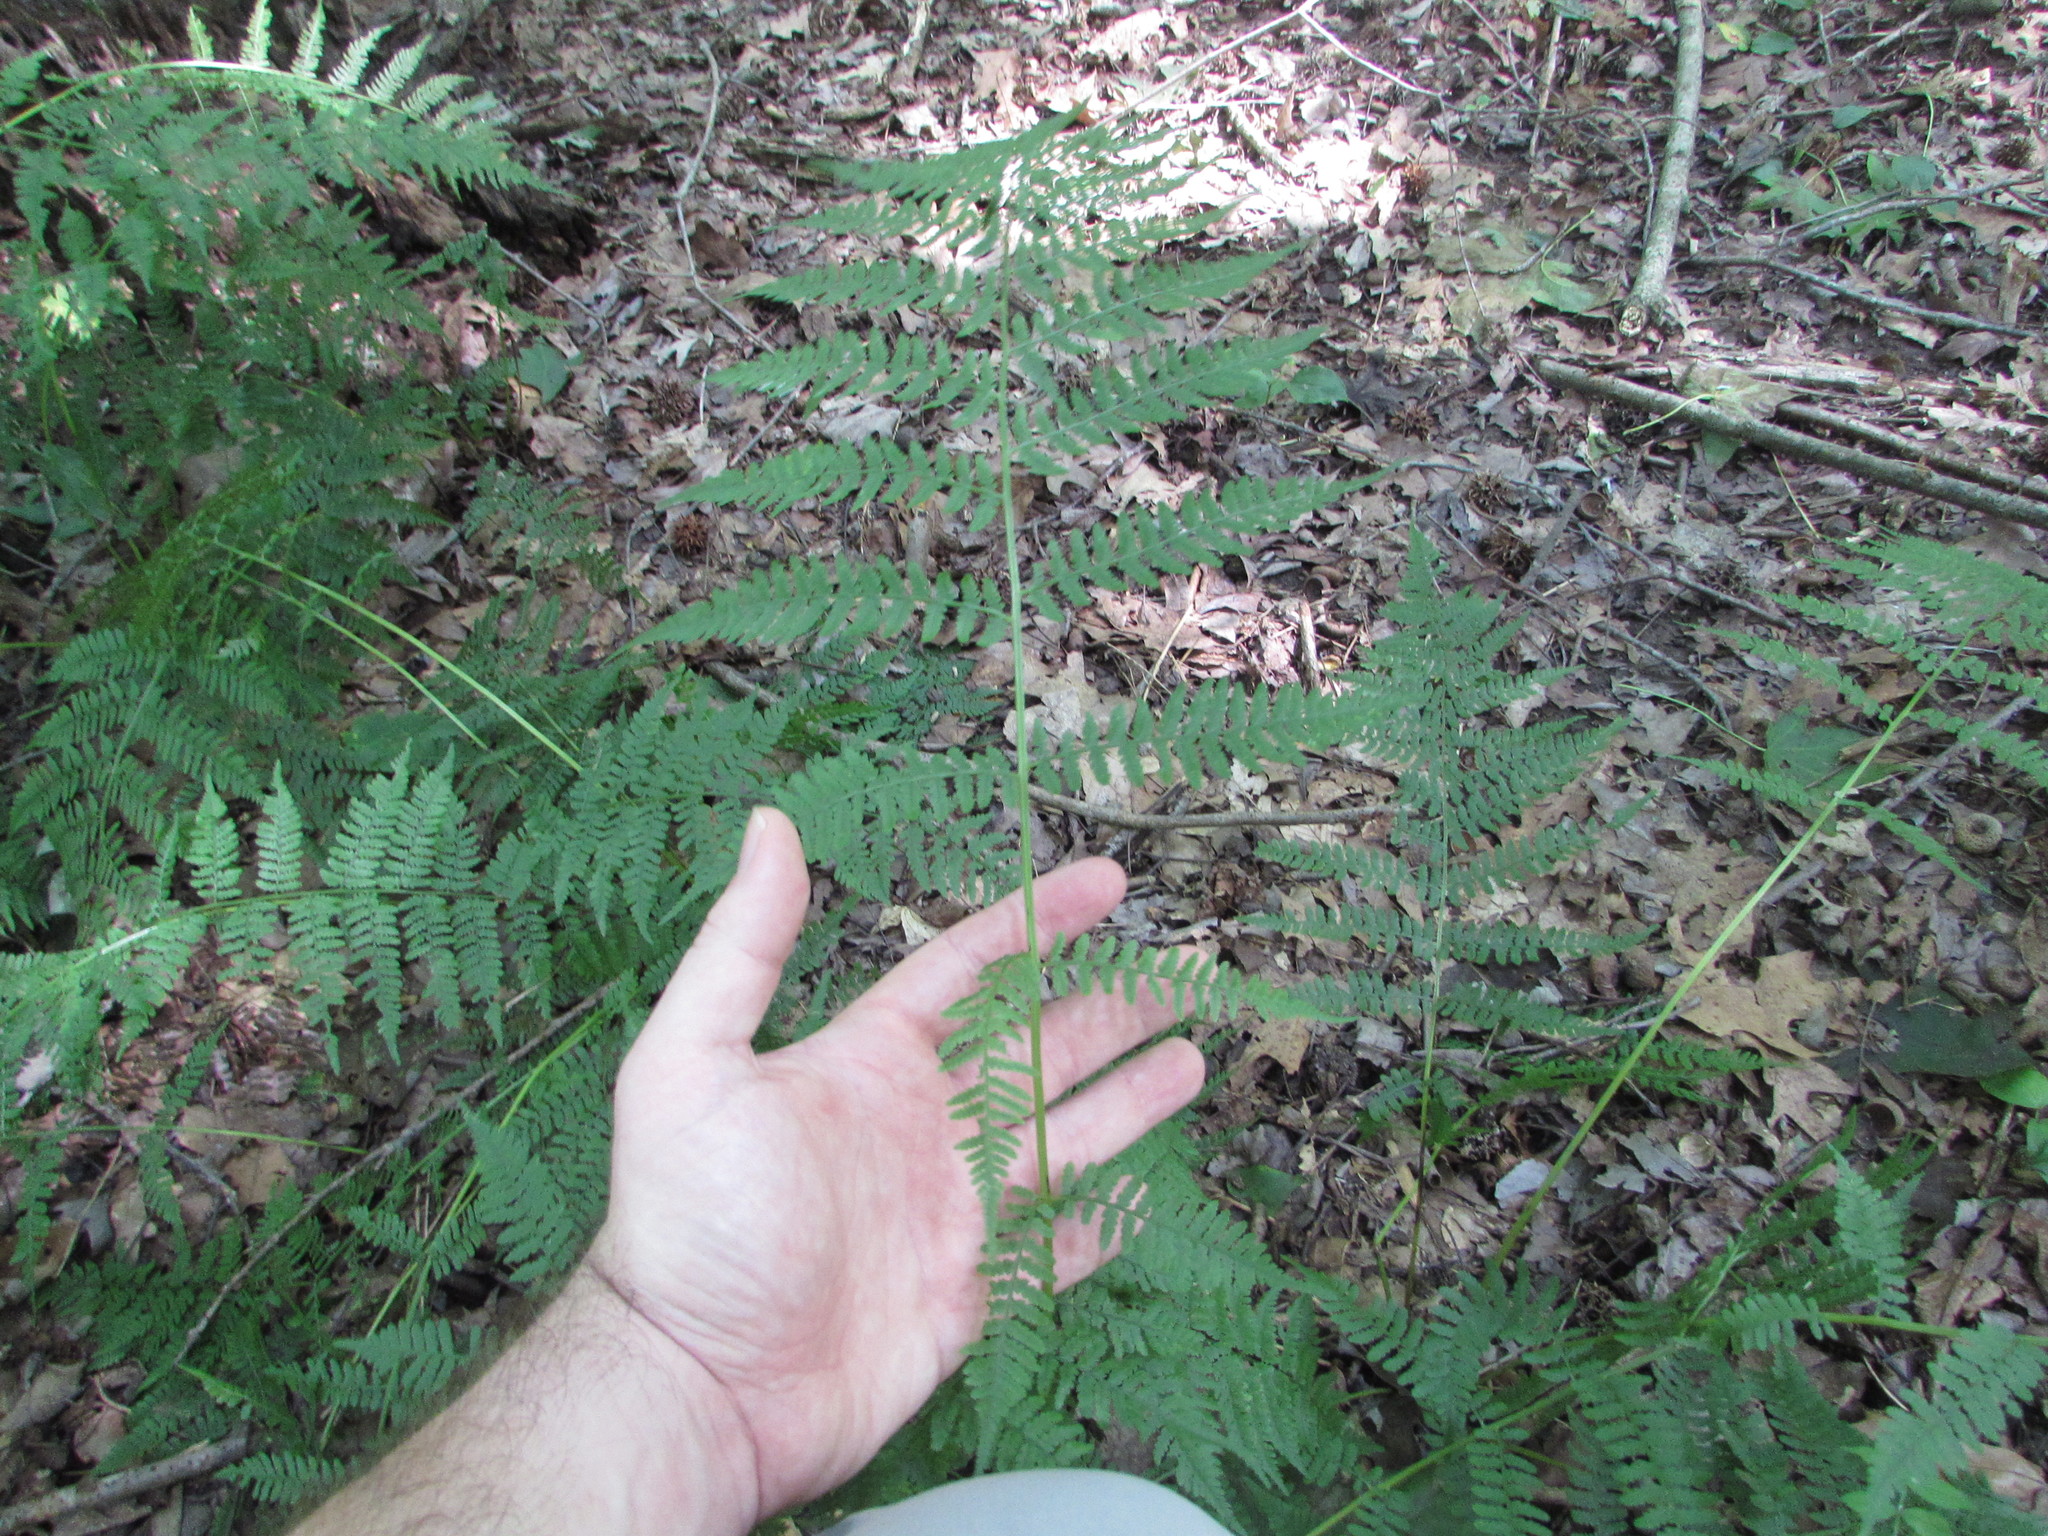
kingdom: Plantae
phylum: Tracheophyta
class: Polypodiopsida
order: Polypodiales
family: Athyriaceae
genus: Athyrium
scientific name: Athyrium angustum
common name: Northern lady fern
